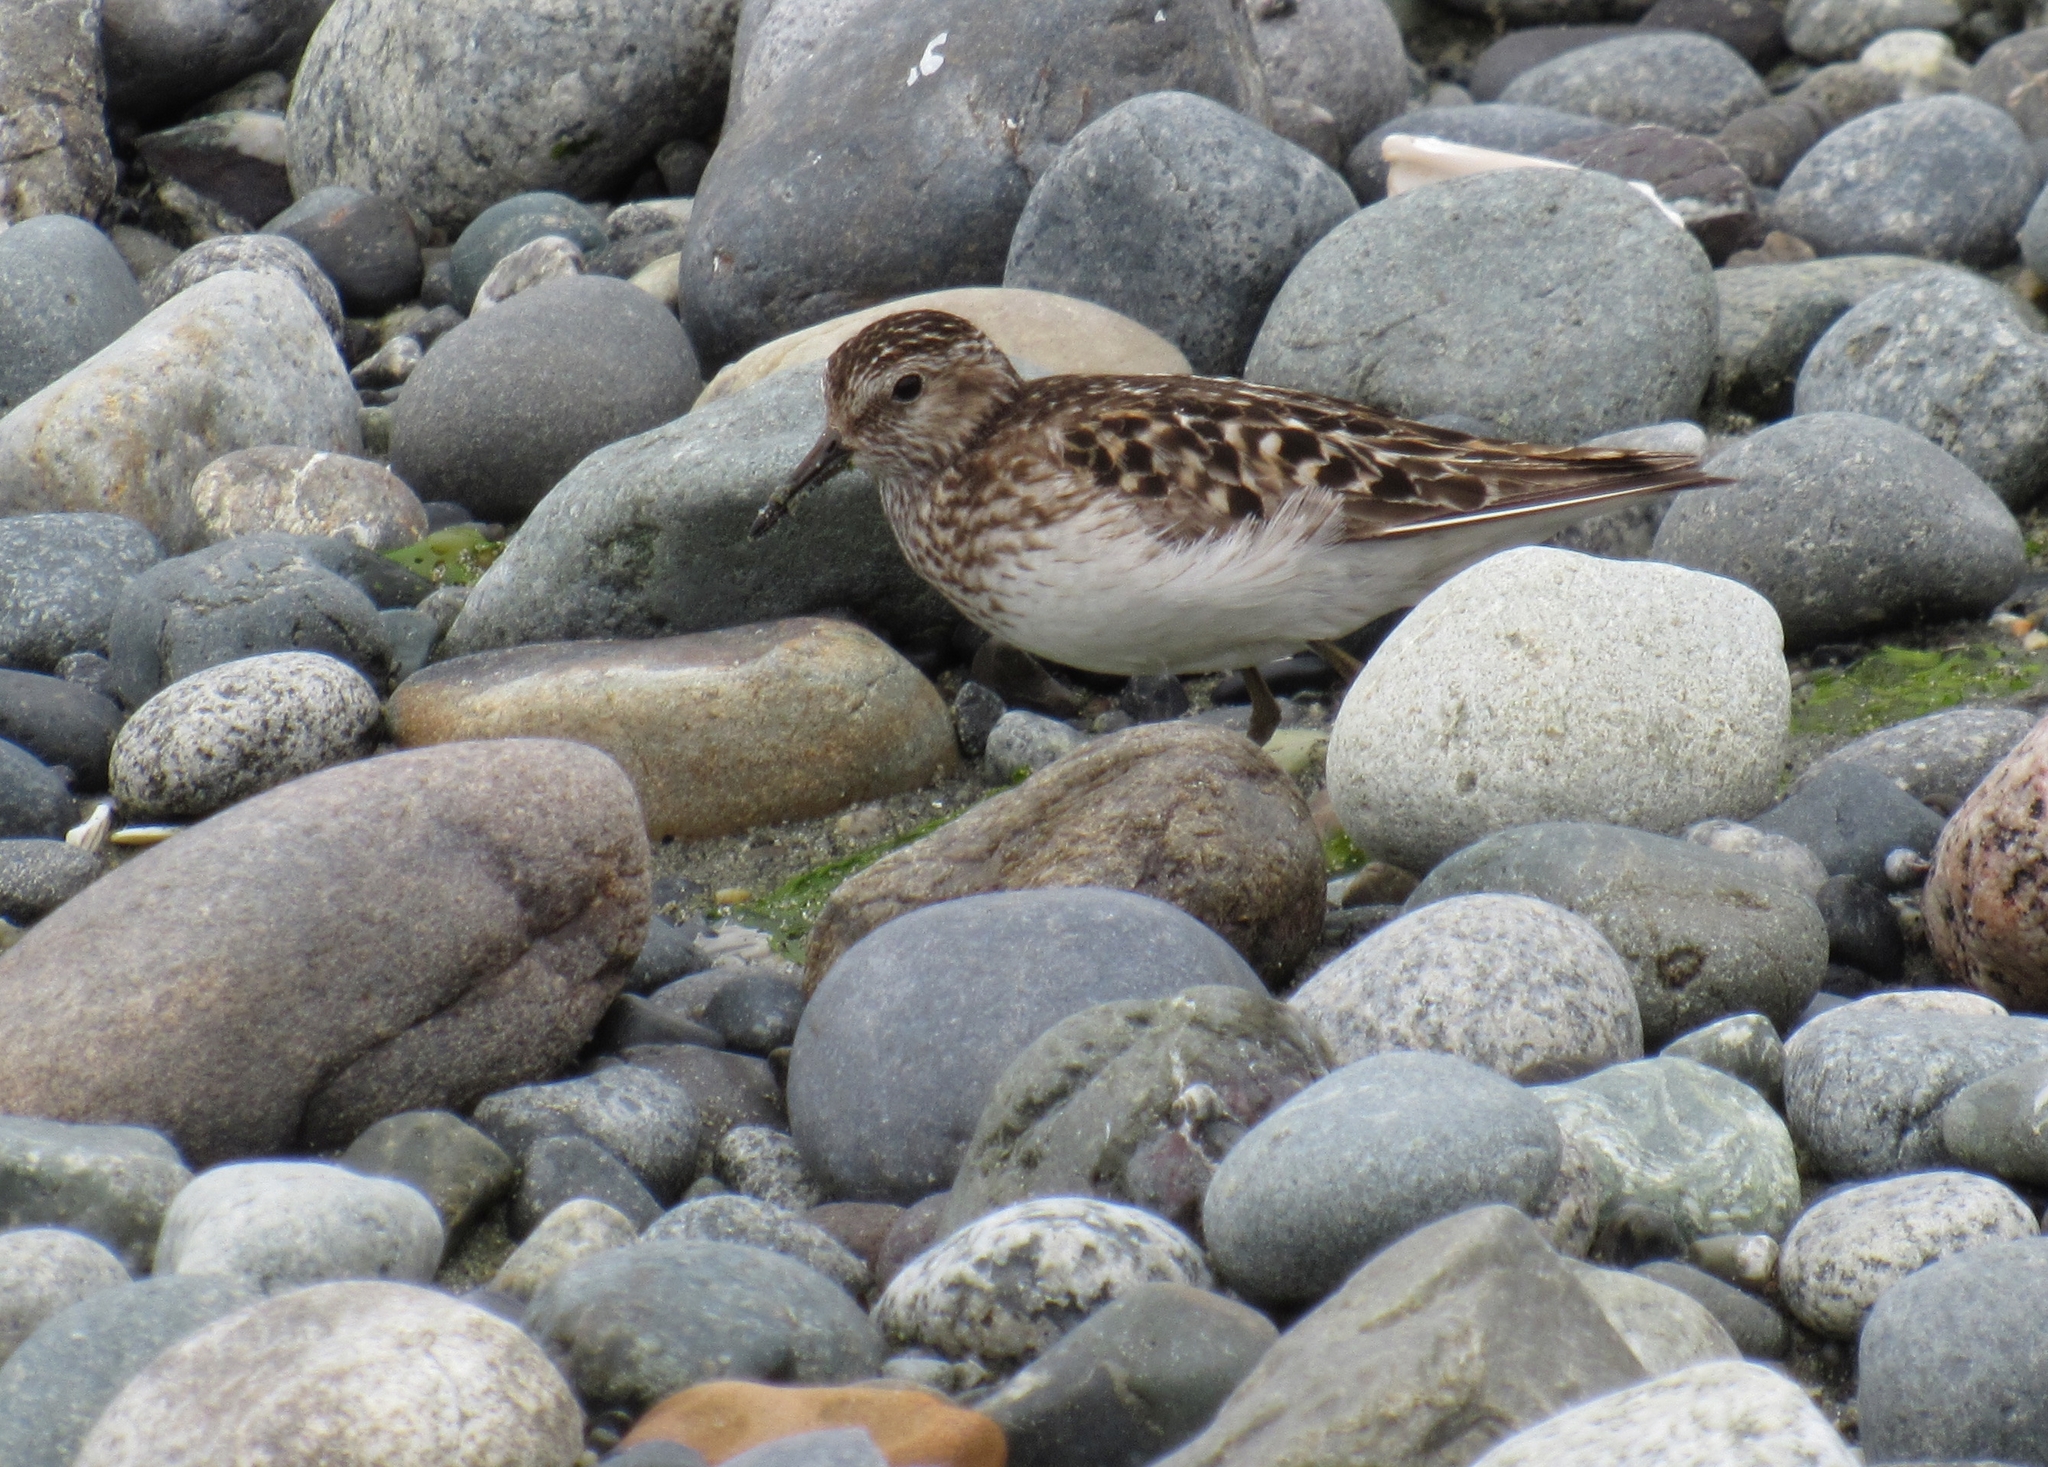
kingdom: Animalia
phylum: Chordata
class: Aves
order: Charadriiformes
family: Scolopacidae
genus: Calidris
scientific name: Calidris minutilla
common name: Least sandpiper
